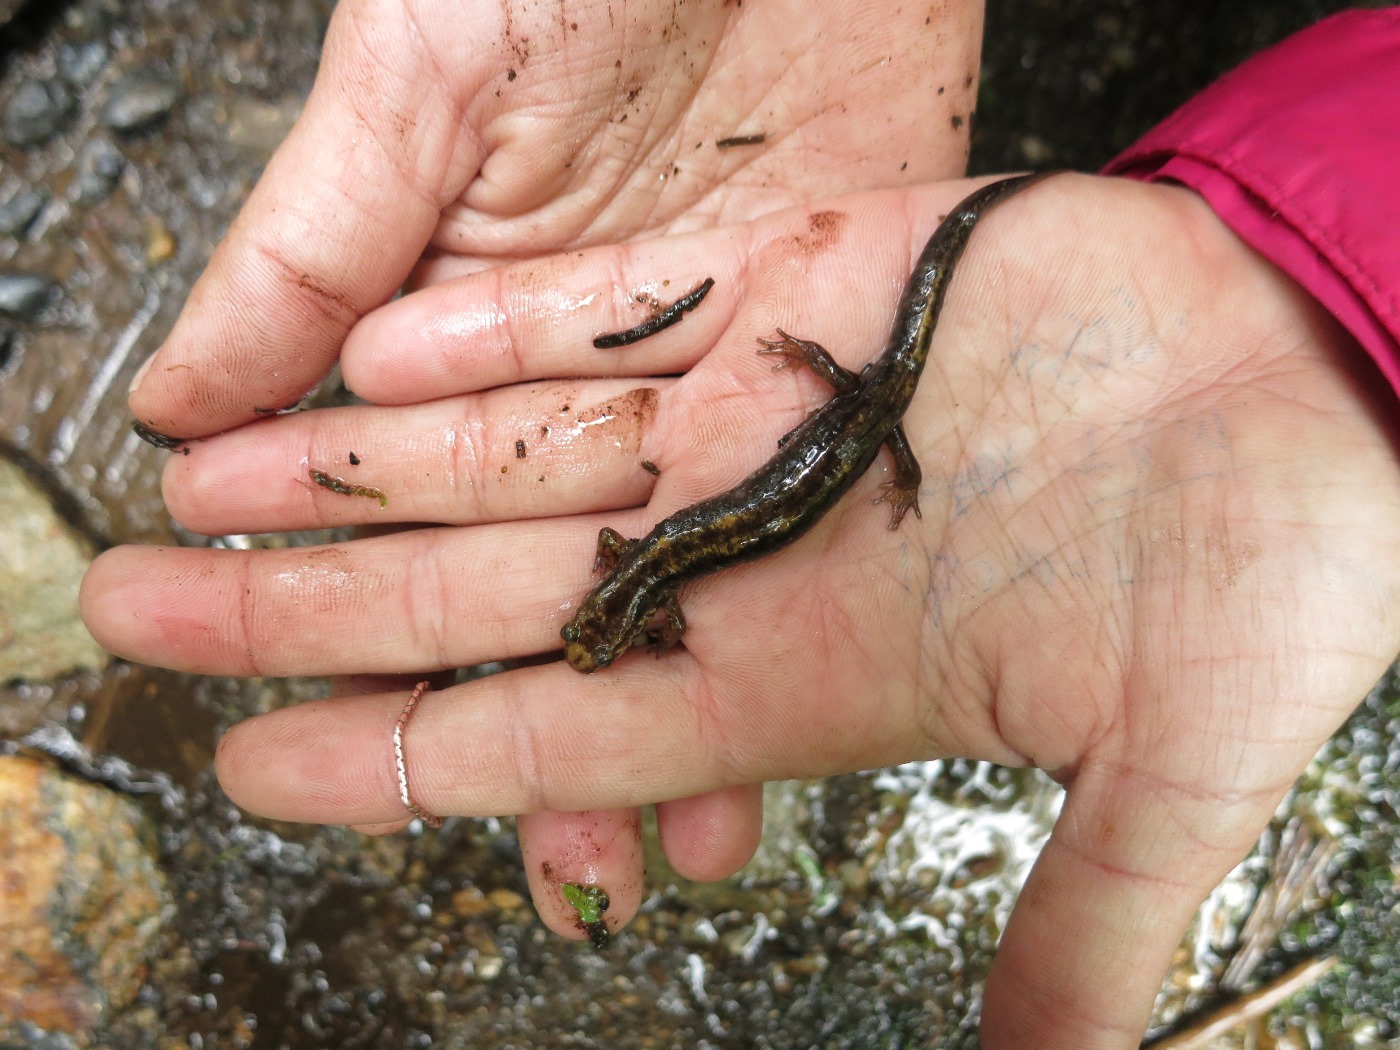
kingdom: Animalia
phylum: Chordata
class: Amphibia
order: Caudata
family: Plethodontidae
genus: Desmognathus
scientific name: Desmognathus monticola
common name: Seal salamander
